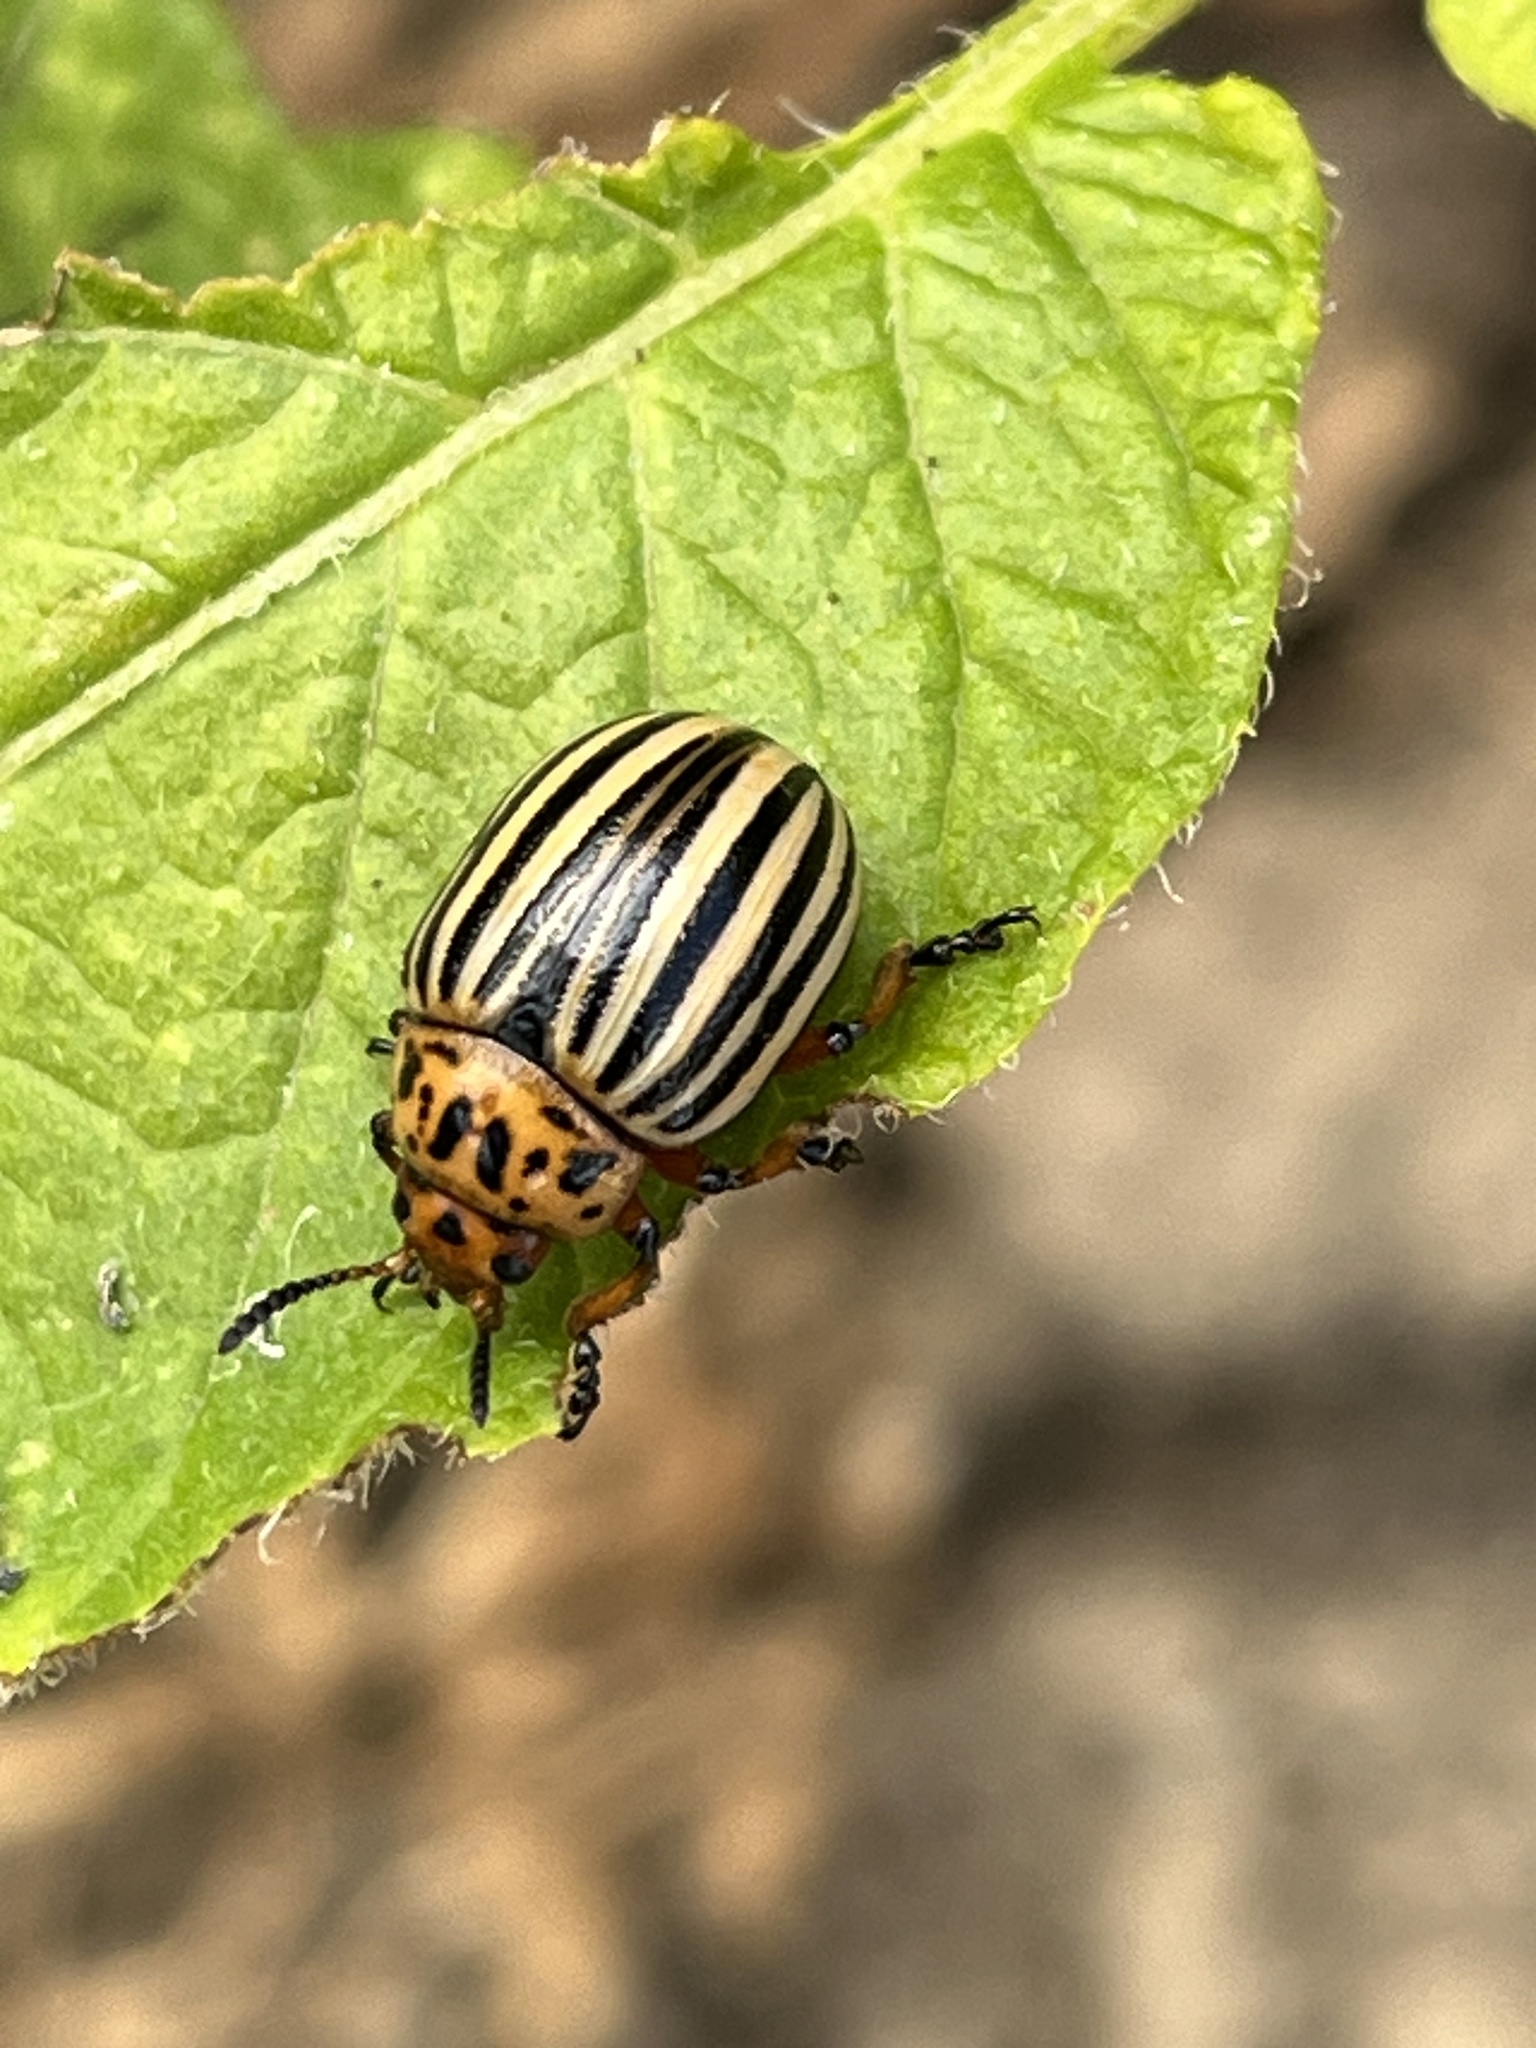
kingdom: Animalia
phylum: Arthropoda
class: Insecta
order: Coleoptera
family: Chrysomelidae
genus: Leptinotarsa
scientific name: Leptinotarsa decemlineata
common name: Colorado potato beetle
